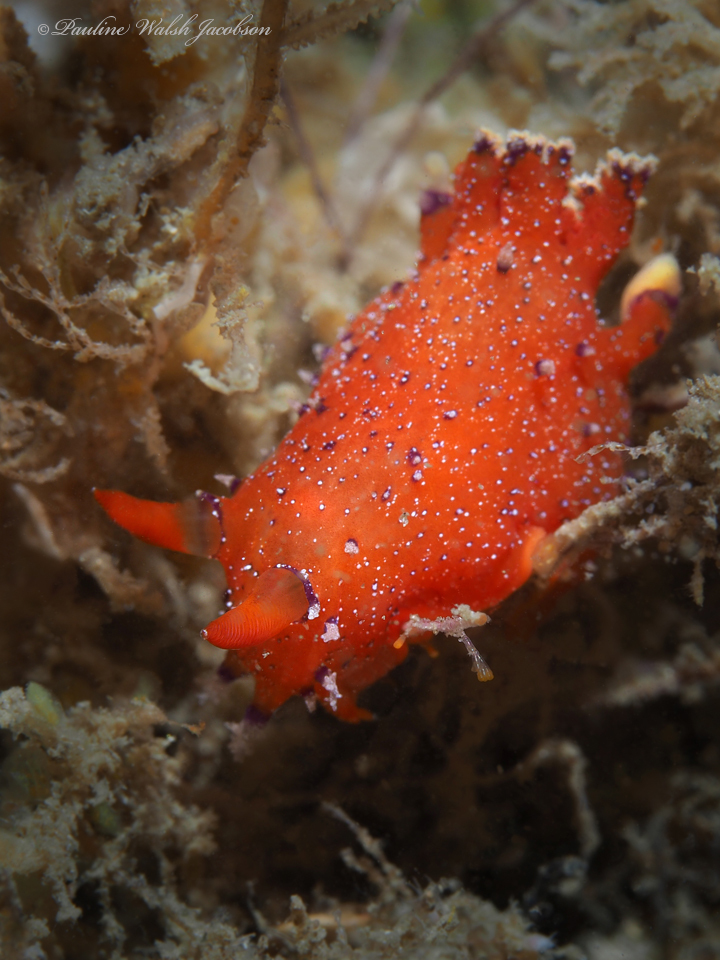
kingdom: Animalia
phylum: Mollusca
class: Gastropoda
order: Nudibranchia
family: Polyceridae
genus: Plocamopherus
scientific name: Plocamopherus lucayensis
